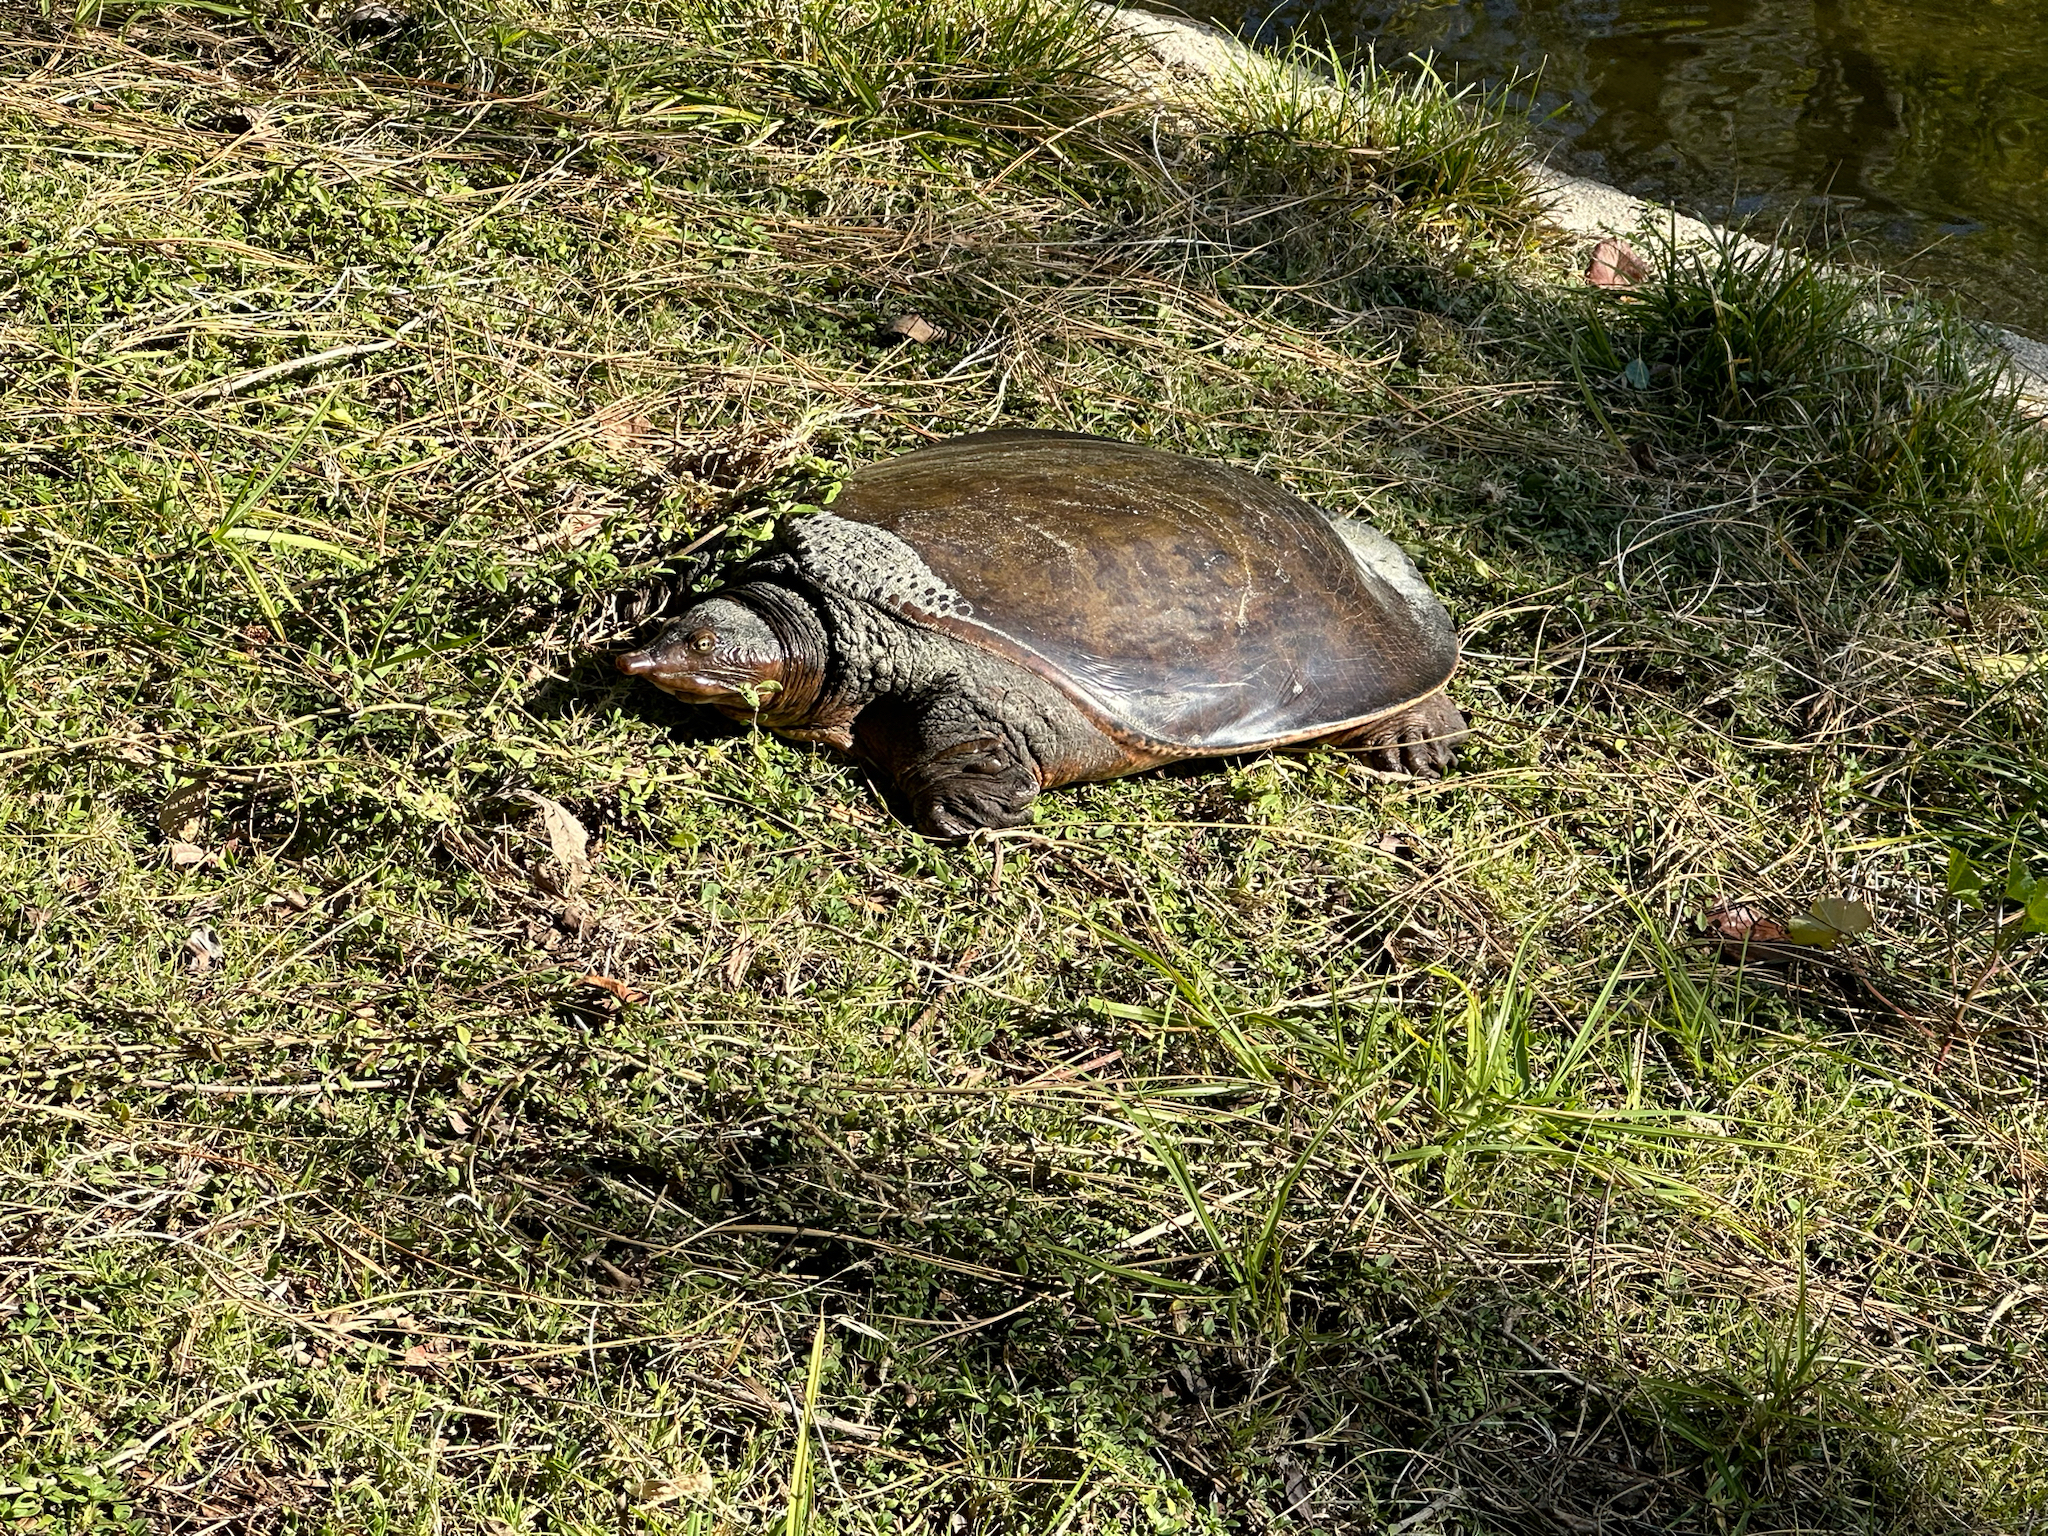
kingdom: Animalia
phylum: Chordata
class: Testudines
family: Trionychidae
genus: Apalone
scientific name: Apalone ferox
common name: Florida softshell turtle
